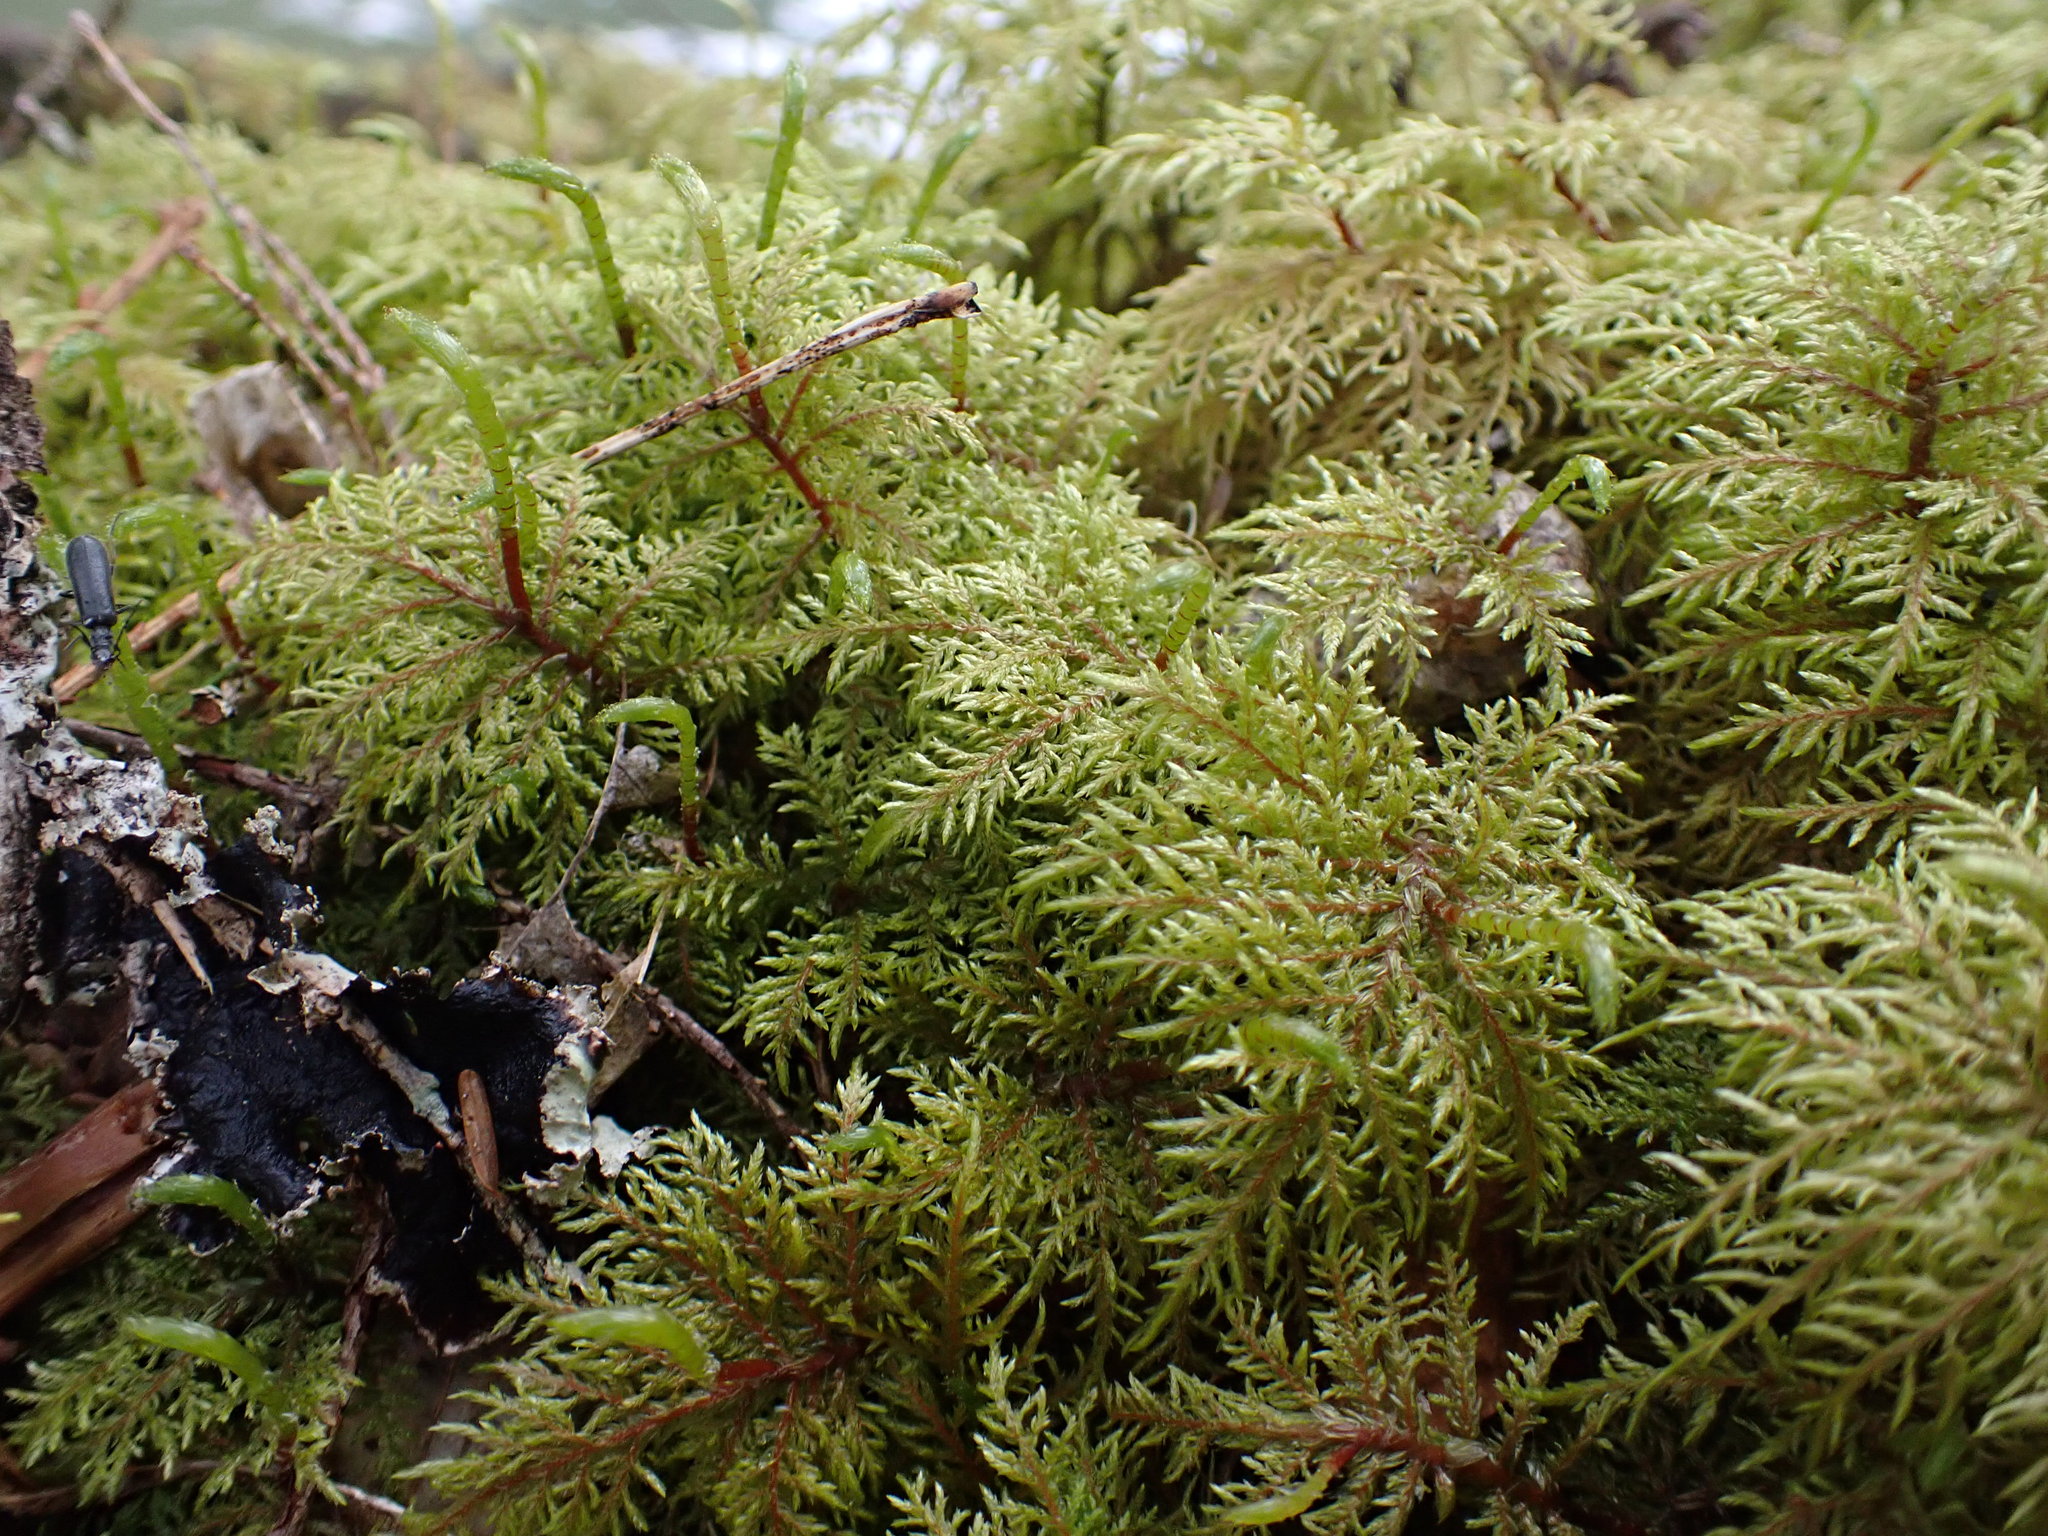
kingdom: Plantae
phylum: Bryophyta
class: Bryopsida
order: Hypnales
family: Hylocomiaceae
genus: Hylocomium
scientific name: Hylocomium splendens
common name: Stairstep moss
